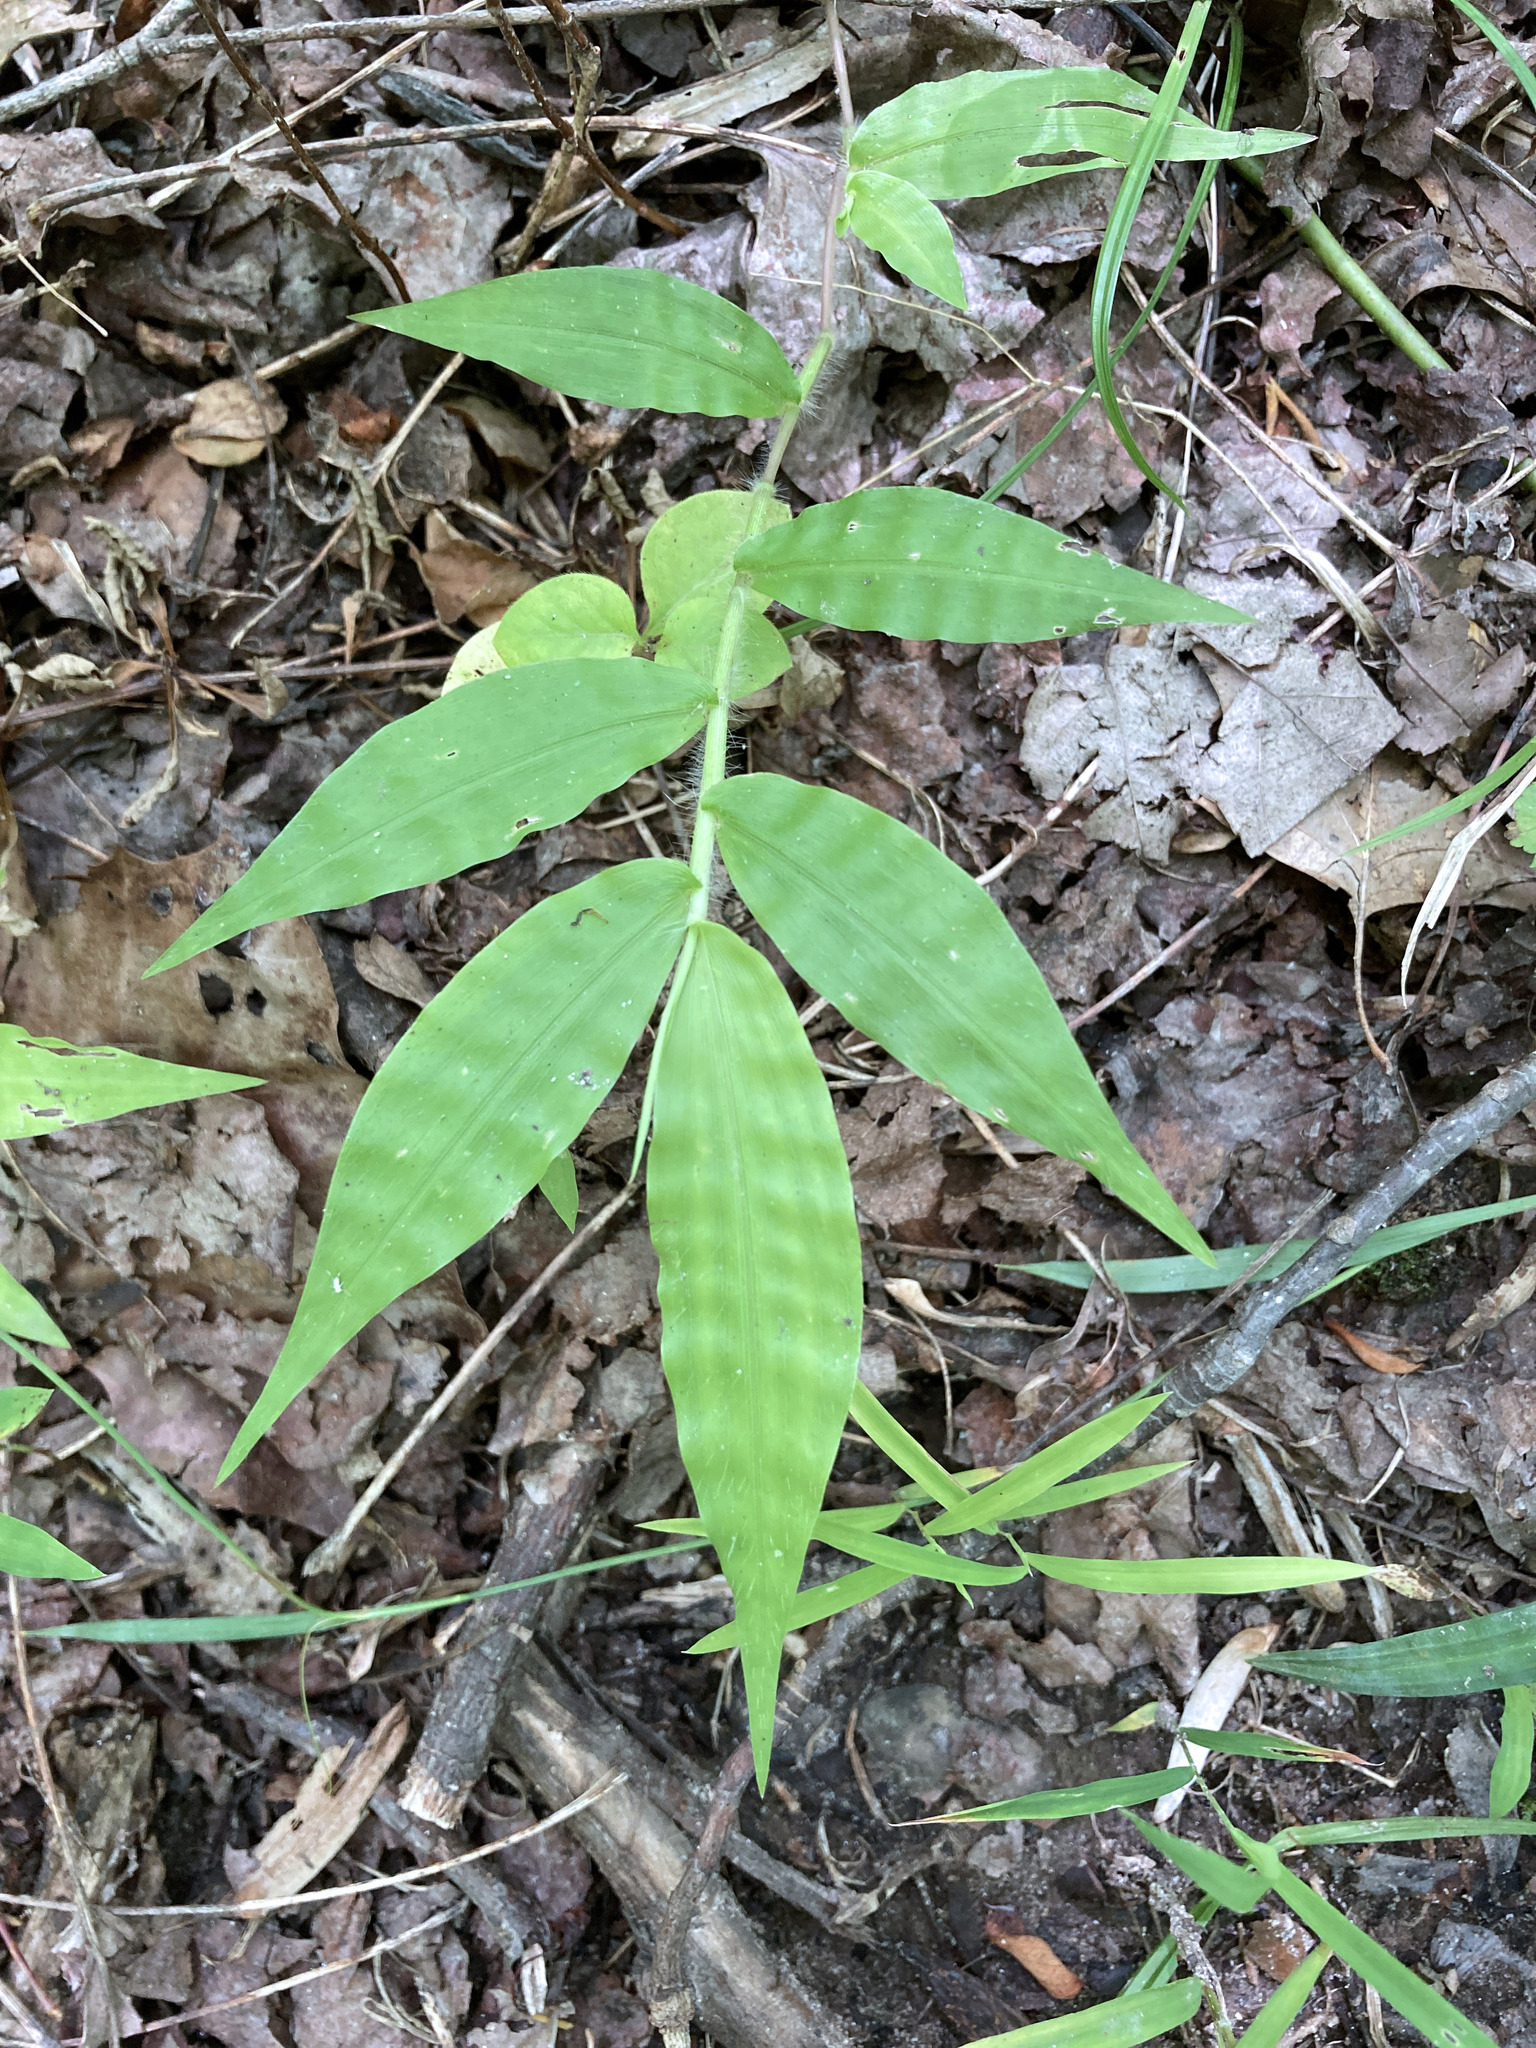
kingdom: Plantae
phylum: Tracheophyta
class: Liliopsida
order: Poales
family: Poaceae
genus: Oplismenus
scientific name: Oplismenus undulatifolius
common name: Wavyleaf basketgrass
